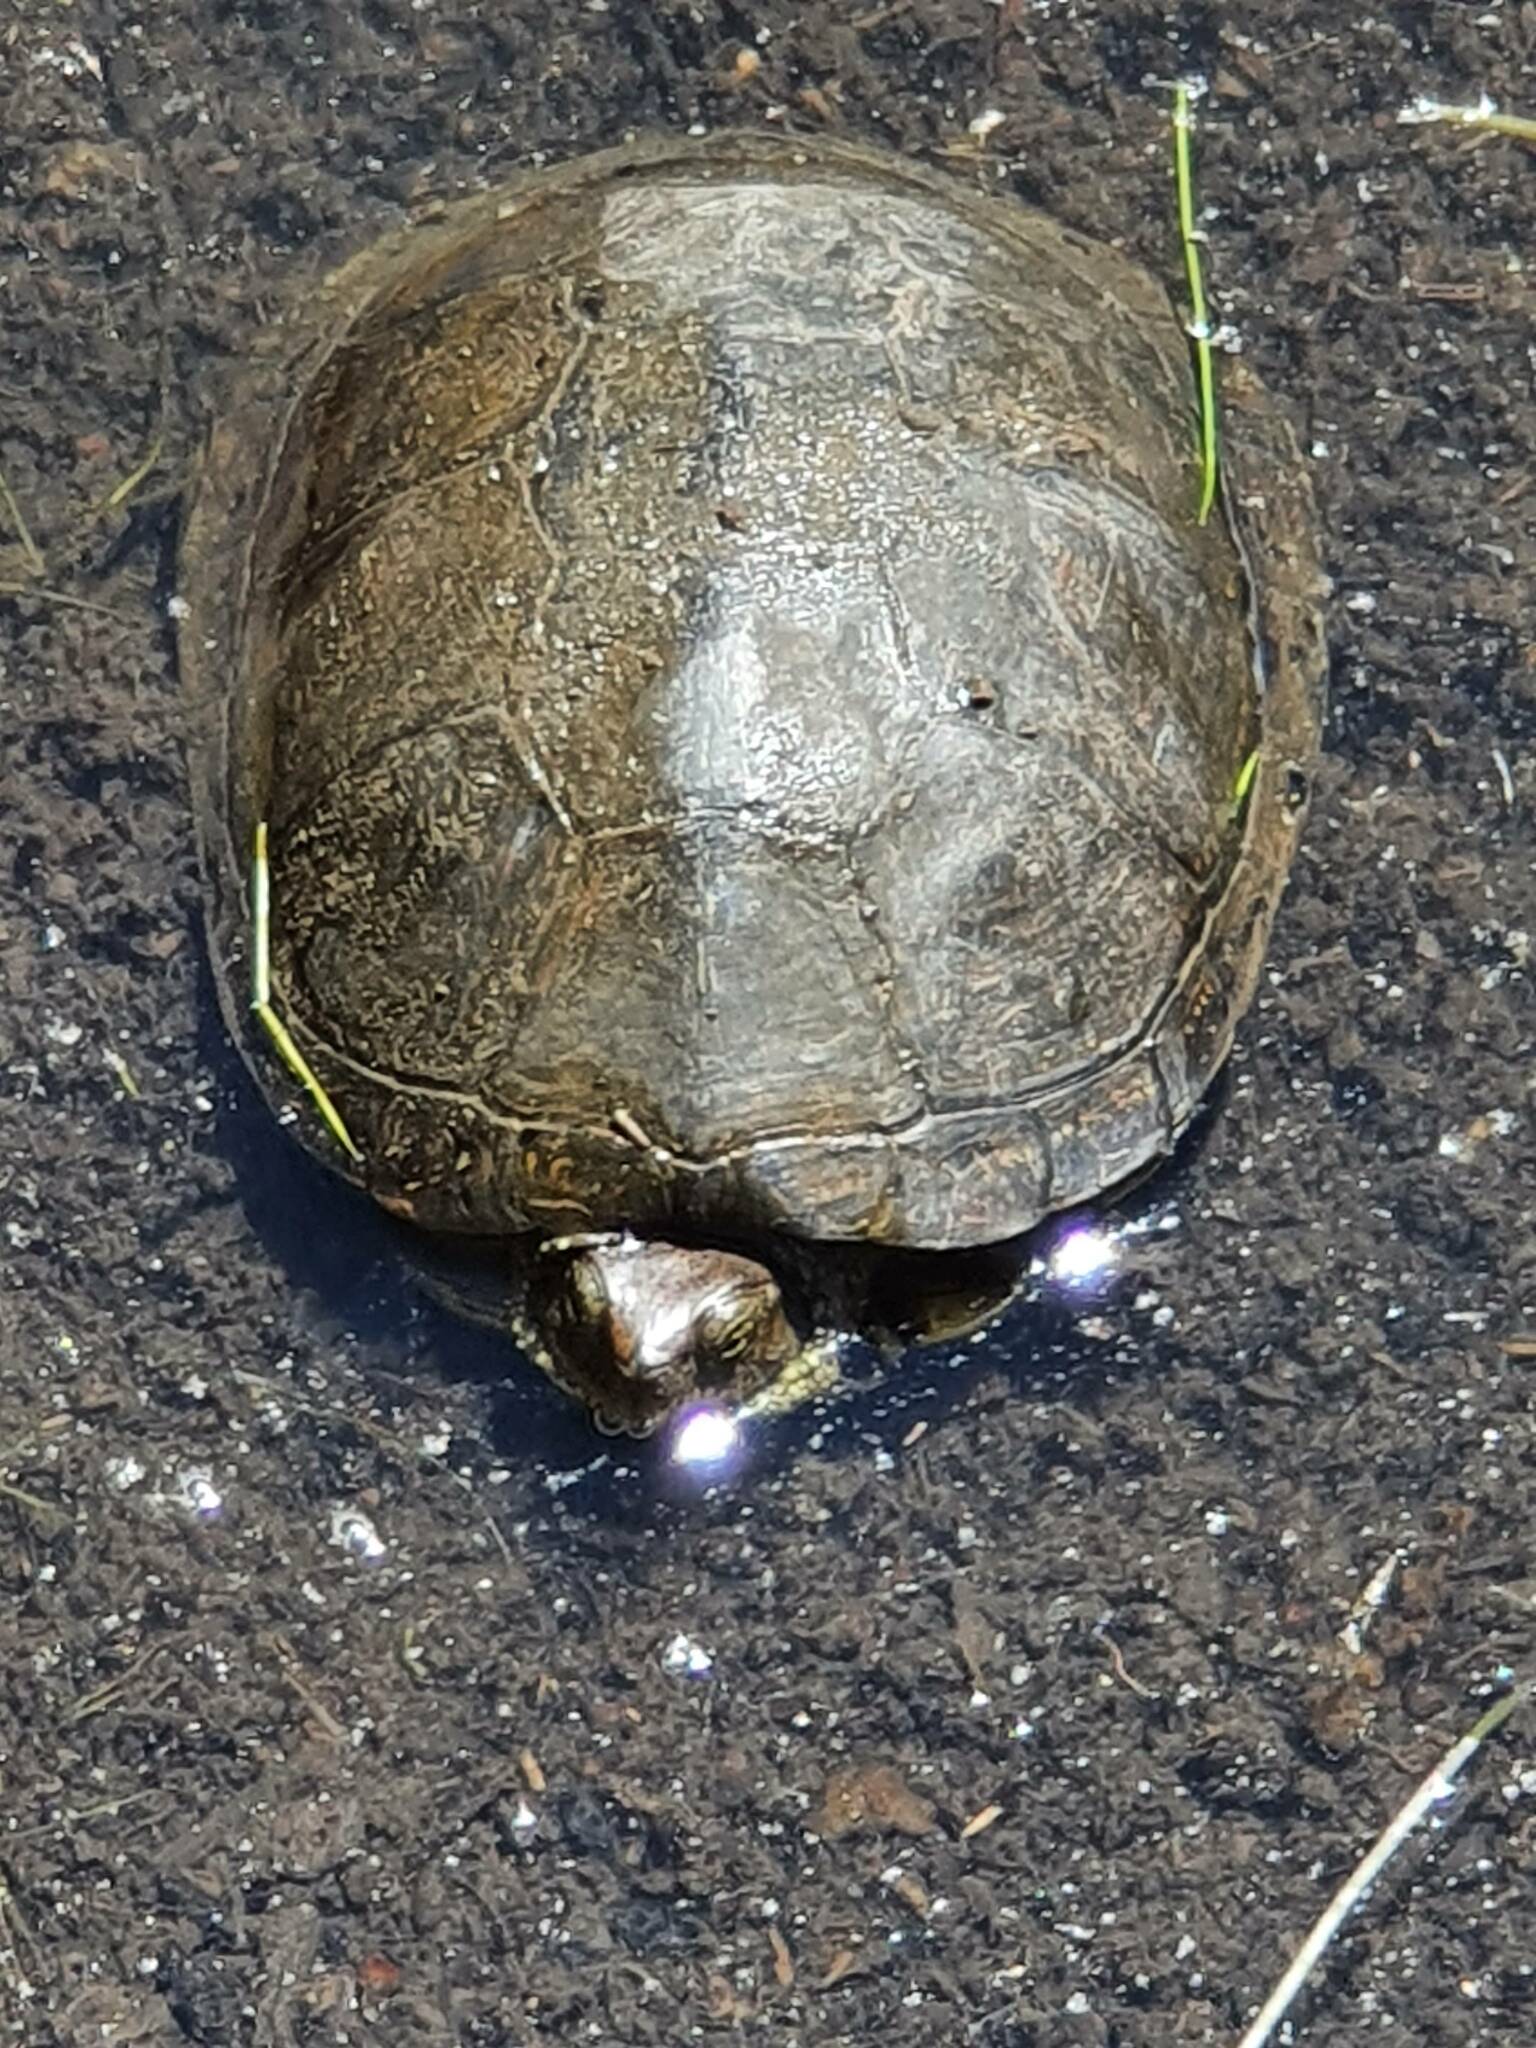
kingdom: Animalia
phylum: Chordata
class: Testudines
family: Emydidae
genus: Emys
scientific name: Emys orbicularis
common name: European pond turtle
